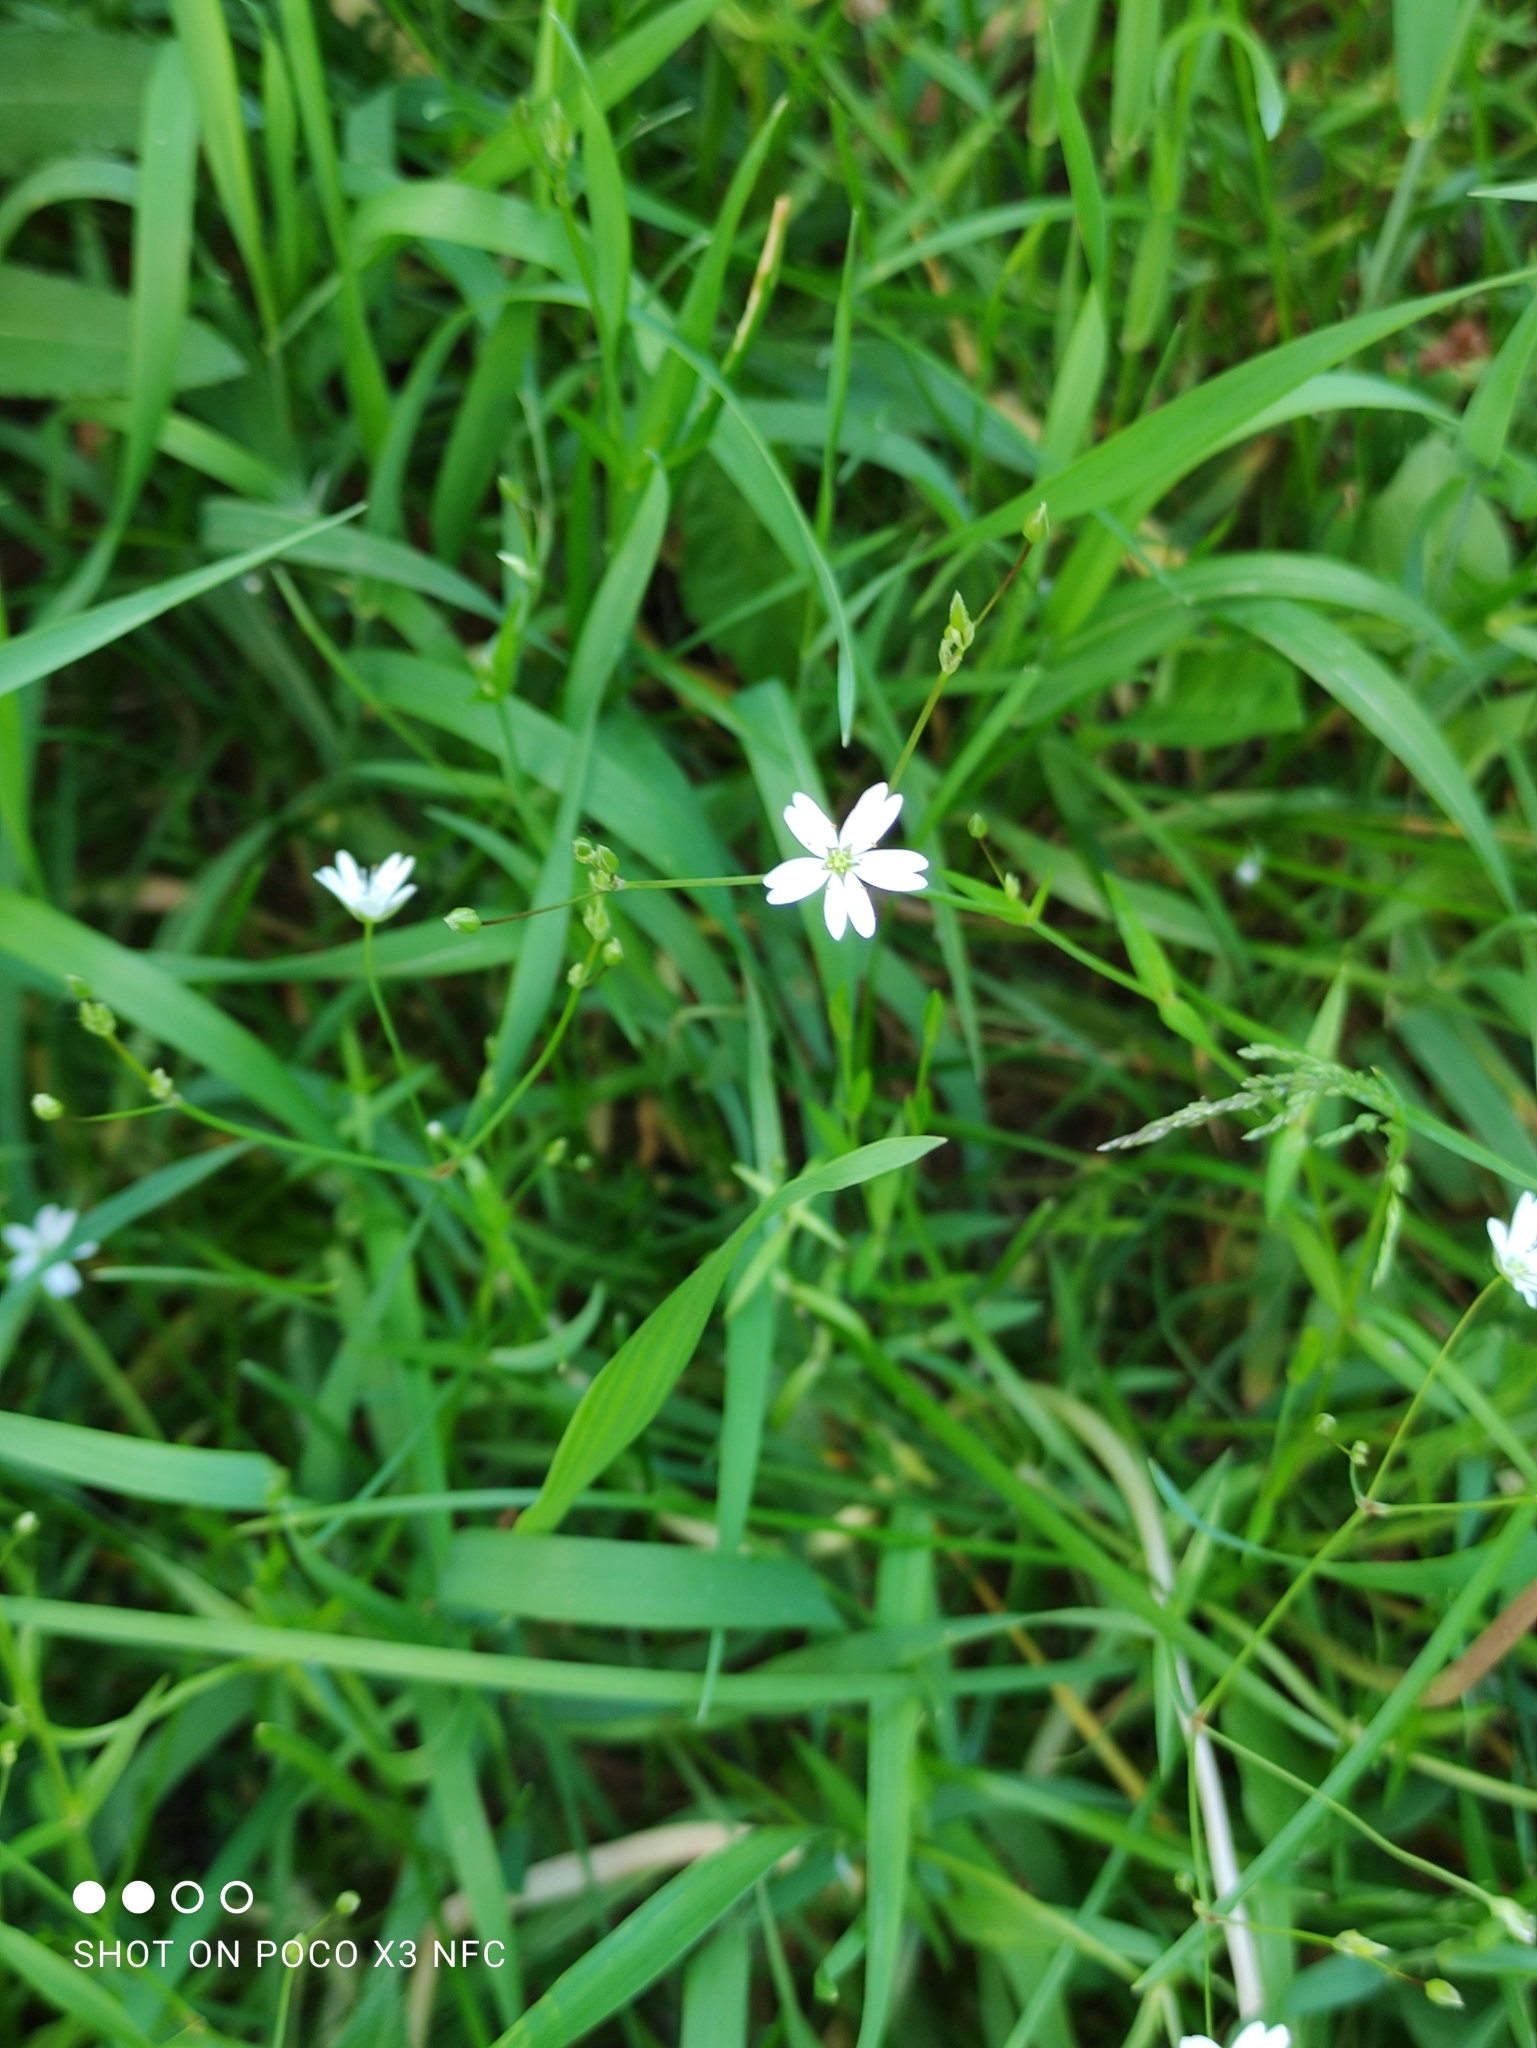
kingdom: Plantae
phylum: Tracheophyta
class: Magnoliopsida
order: Caryophyllales
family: Caryophyllaceae
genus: Stellaria
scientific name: Stellaria graminea
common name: Grass-like starwort
